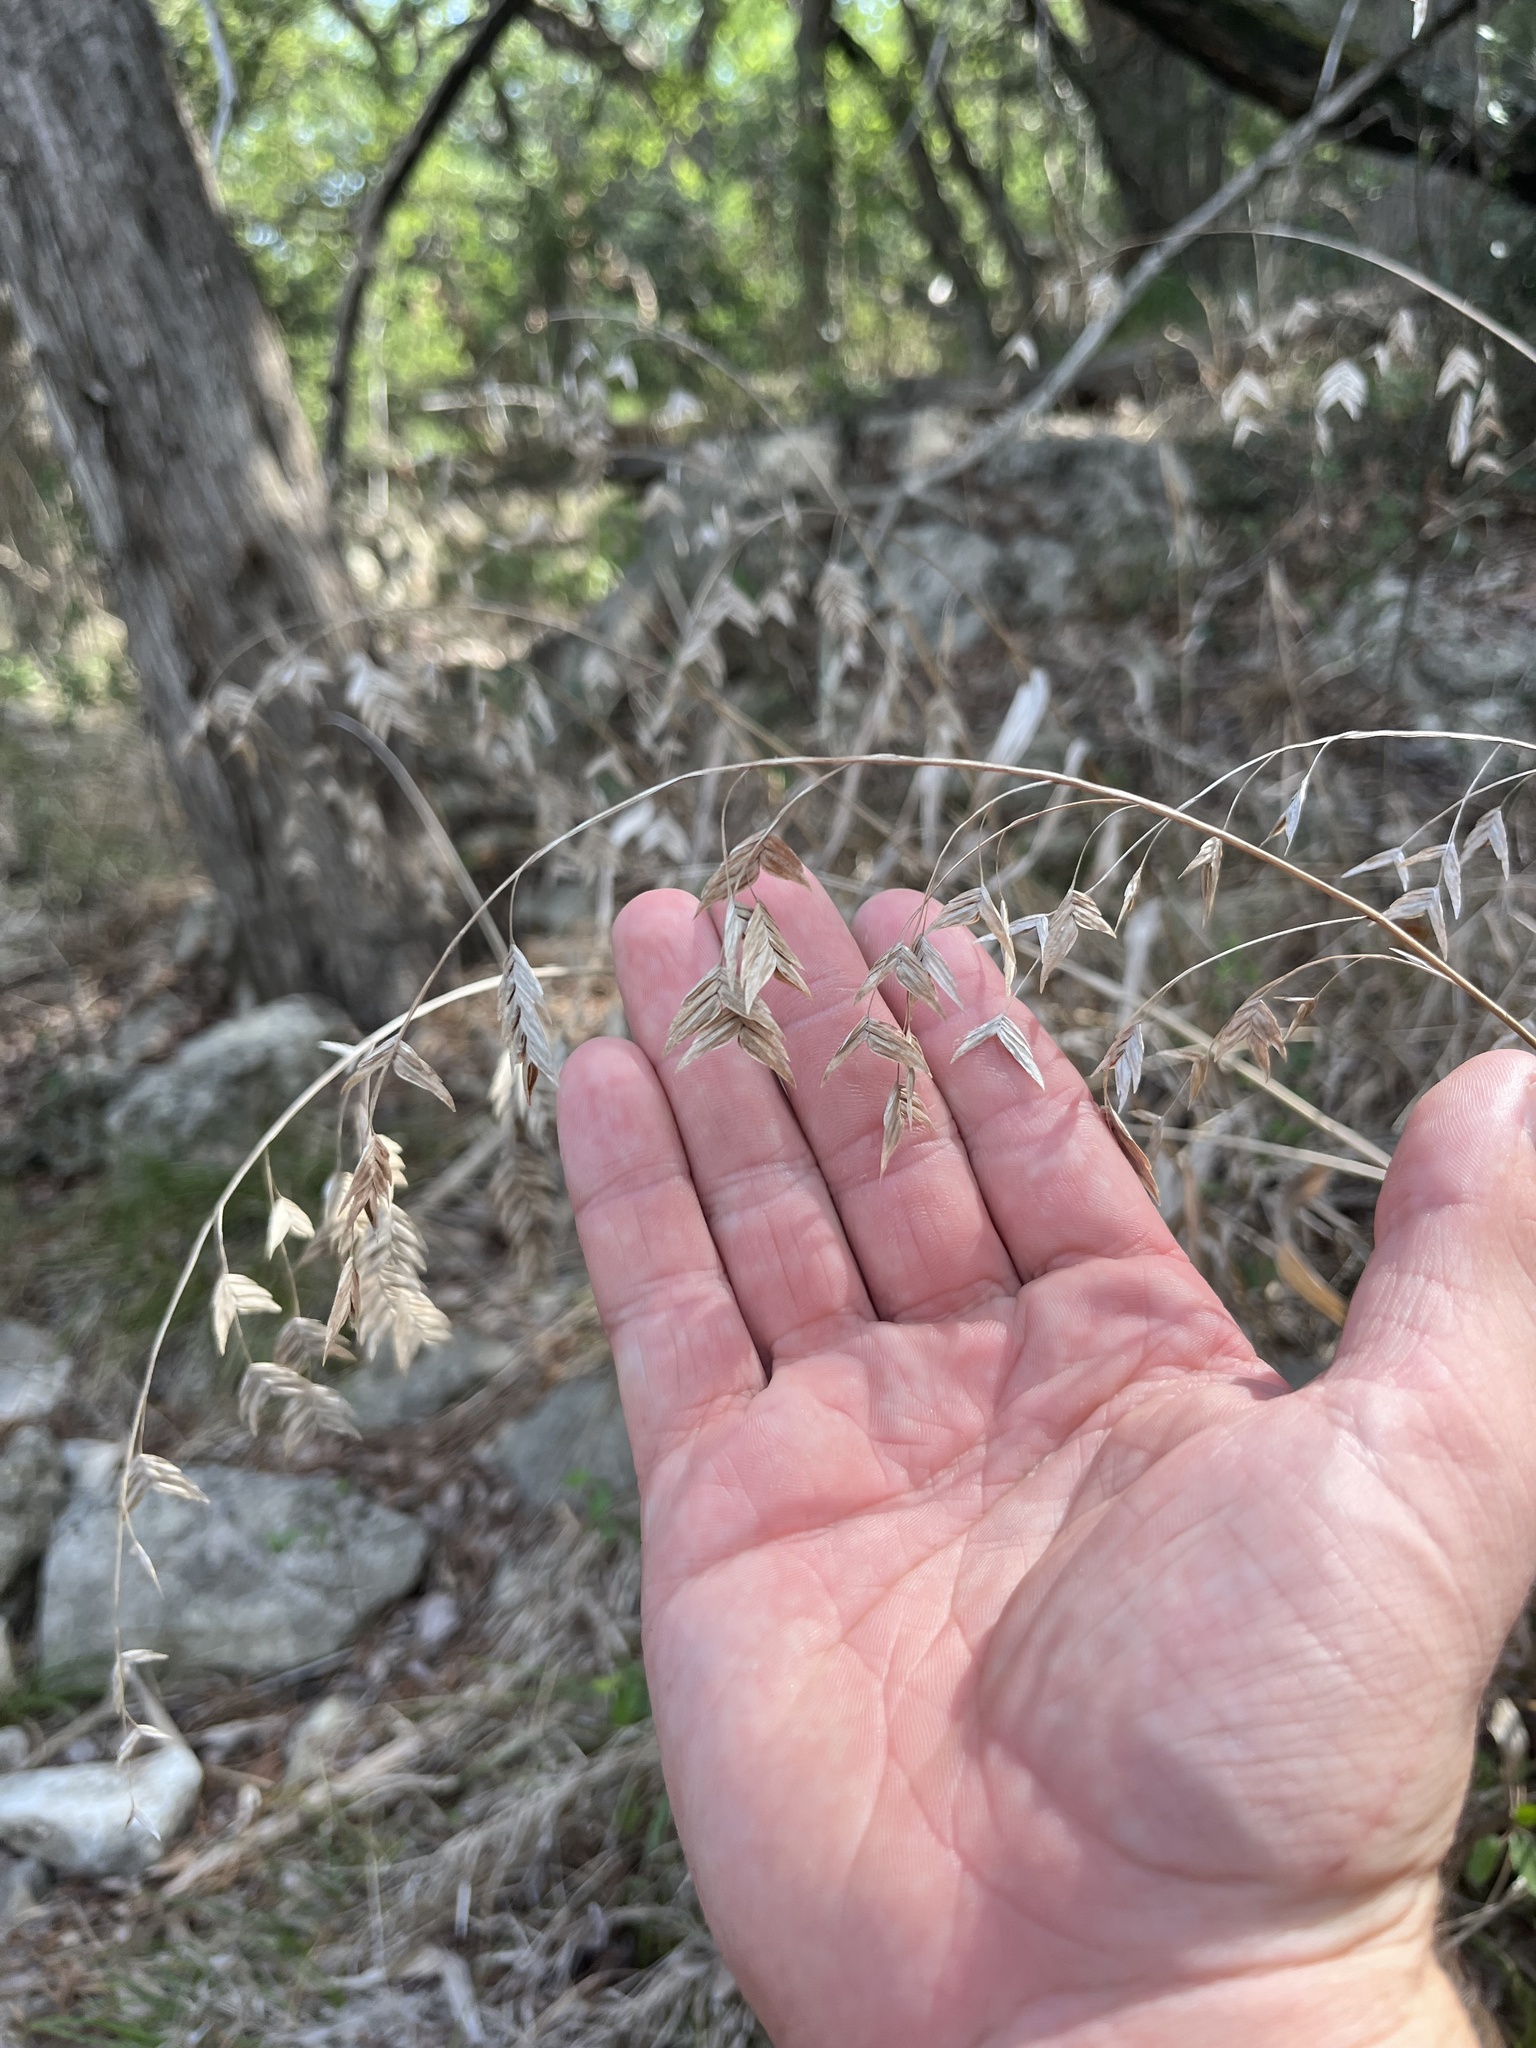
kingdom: Plantae
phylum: Tracheophyta
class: Liliopsida
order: Poales
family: Poaceae
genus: Chasmanthium
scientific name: Chasmanthium latifolium
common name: Broad-leaved chasmanthium
